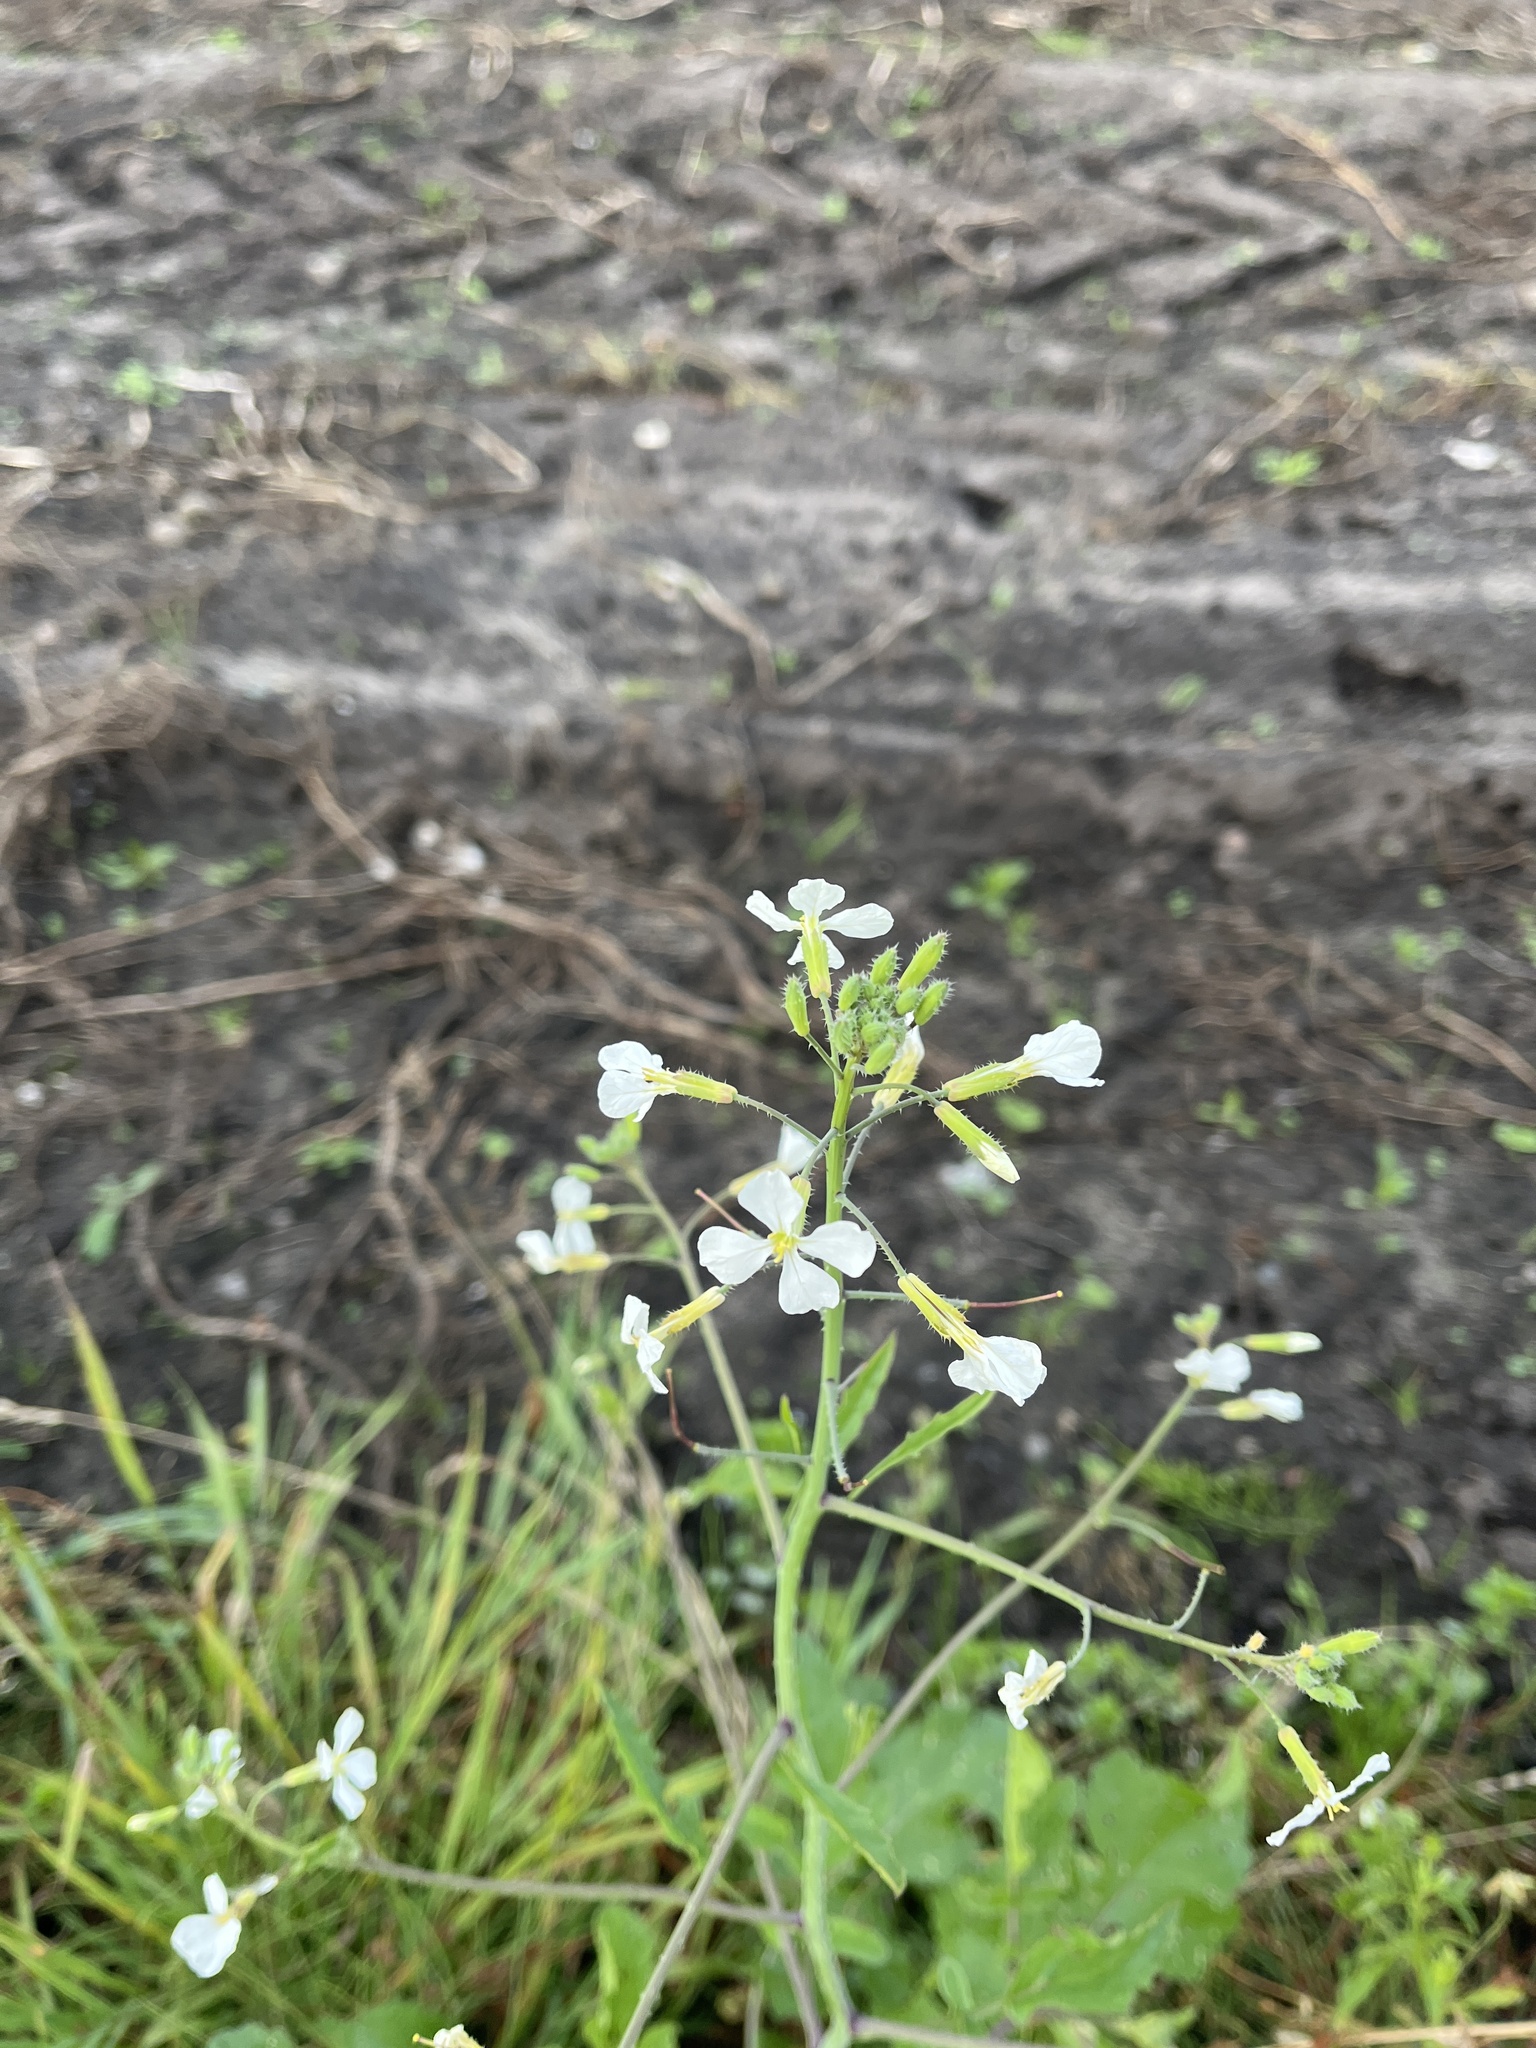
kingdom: Plantae
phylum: Tracheophyta
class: Magnoliopsida
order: Brassicales
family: Brassicaceae
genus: Raphanus
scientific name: Raphanus raphanistrum
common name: Wild radish
